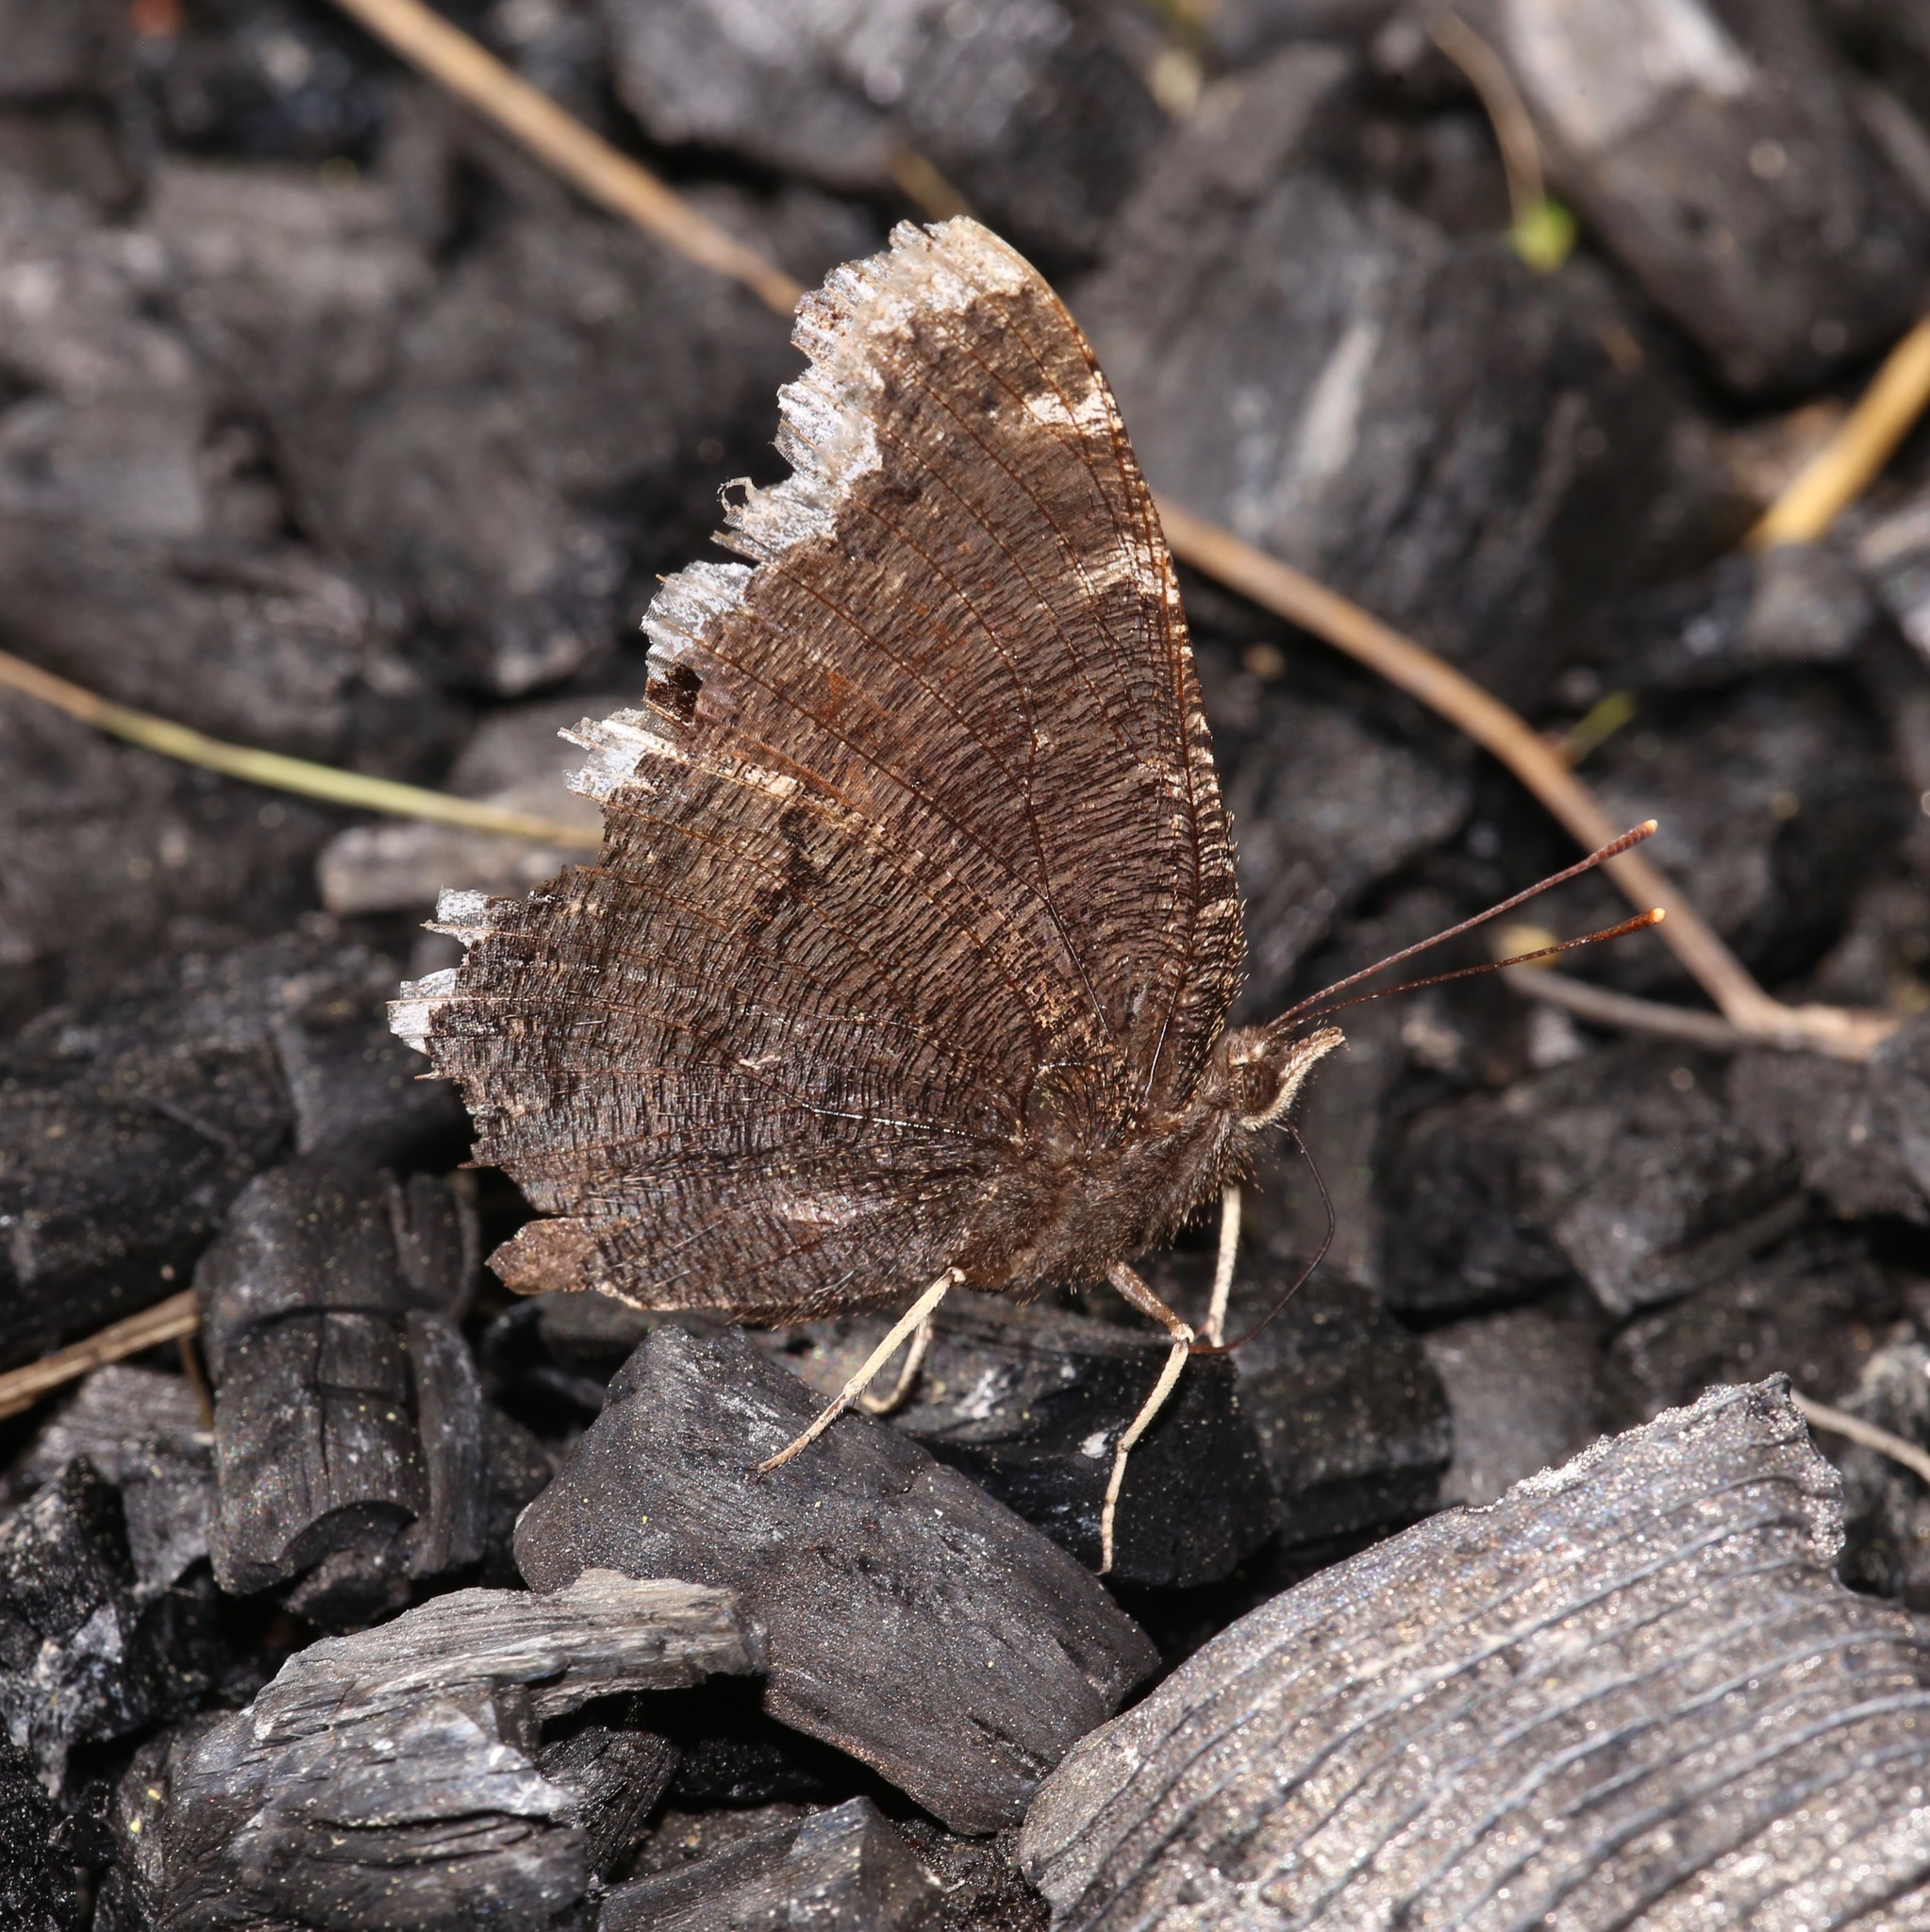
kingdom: Animalia
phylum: Arthropoda
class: Insecta
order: Lepidoptera
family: Nymphalidae
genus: Nymphalis
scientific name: Nymphalis antiopa
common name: Camberwell beauty
